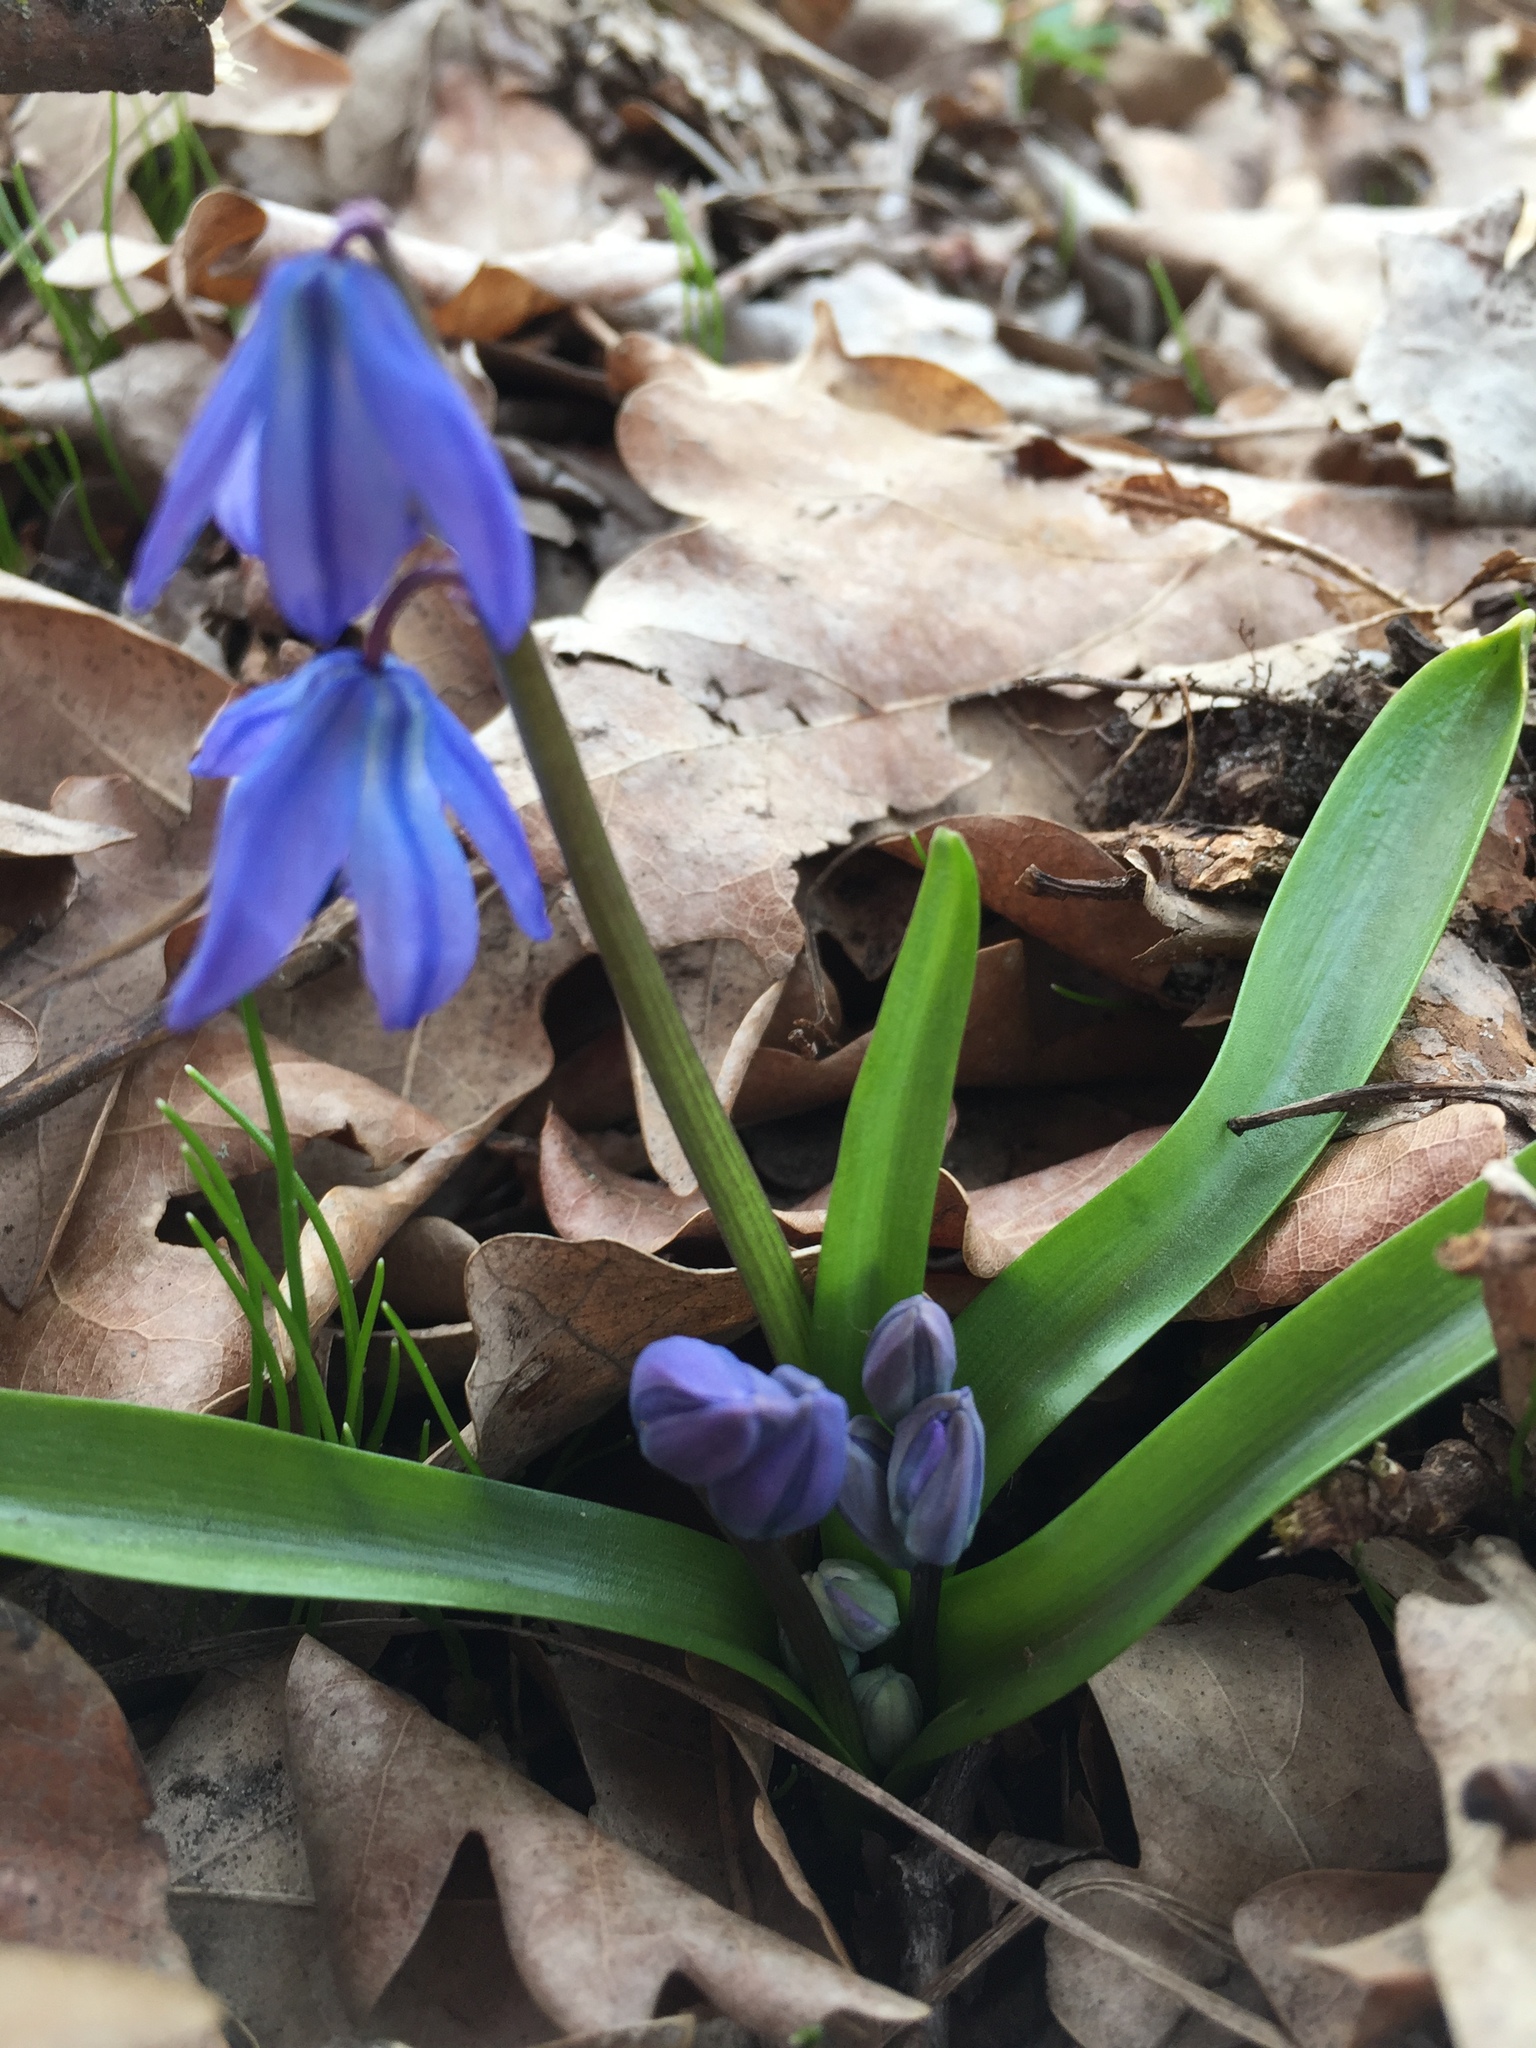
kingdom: Plantae
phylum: Tracheophyta
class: Liliopsida
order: Asparagales
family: Asparagaceae
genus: Scilla
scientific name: Scilla siberica
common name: Siberian squill
